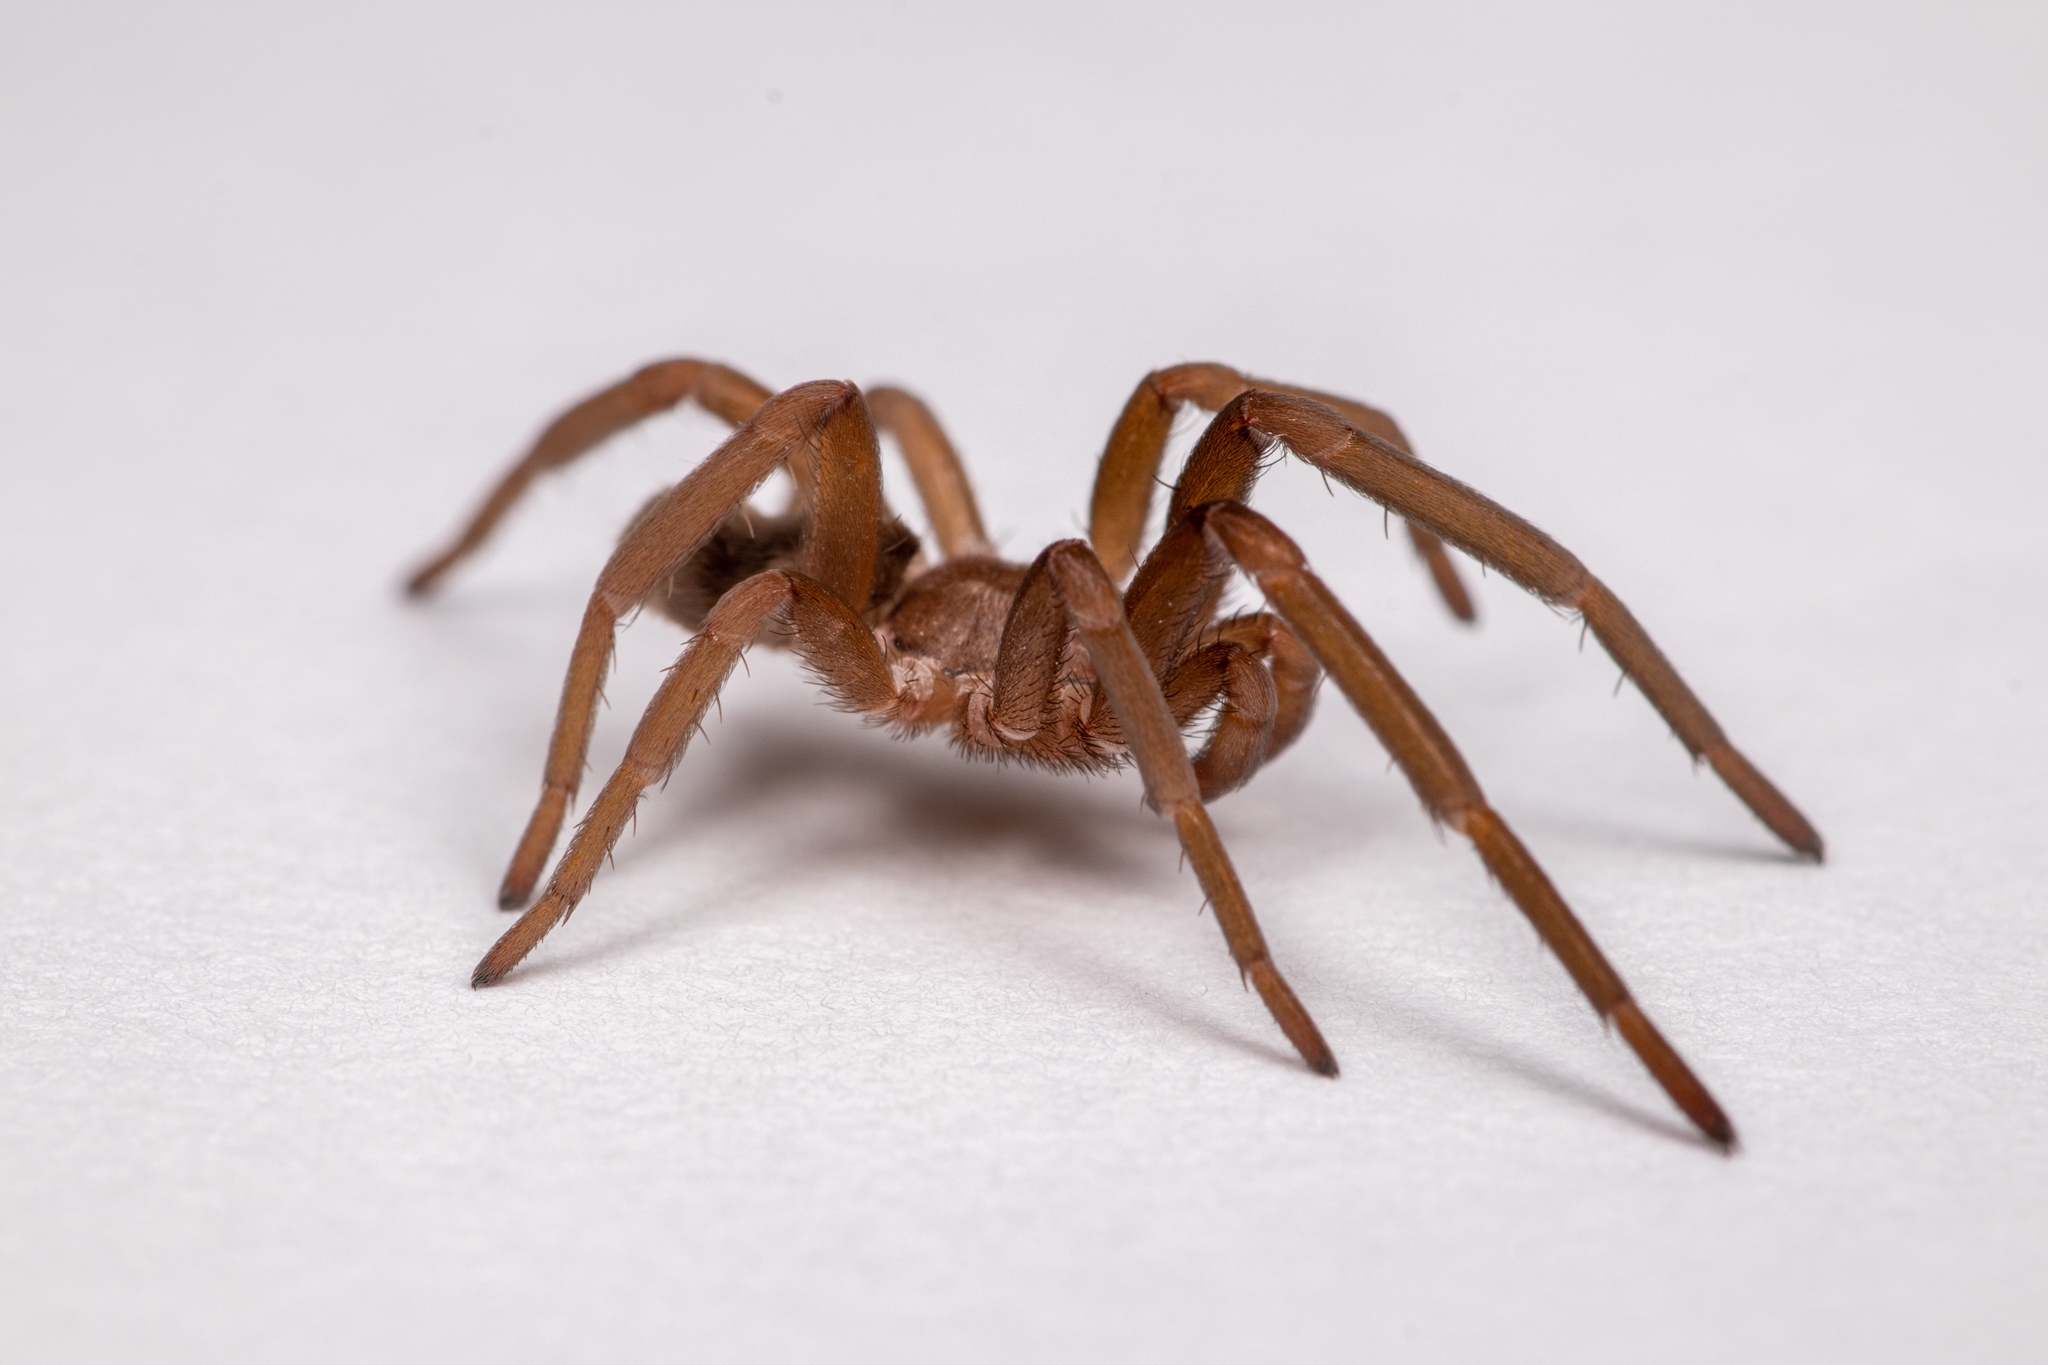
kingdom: Animalia
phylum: Arthropoda
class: Arachnida
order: Araneae
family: Filistatidae
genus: Kukulcania
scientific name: Kukulcania hibernalis
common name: Crevice weaver
